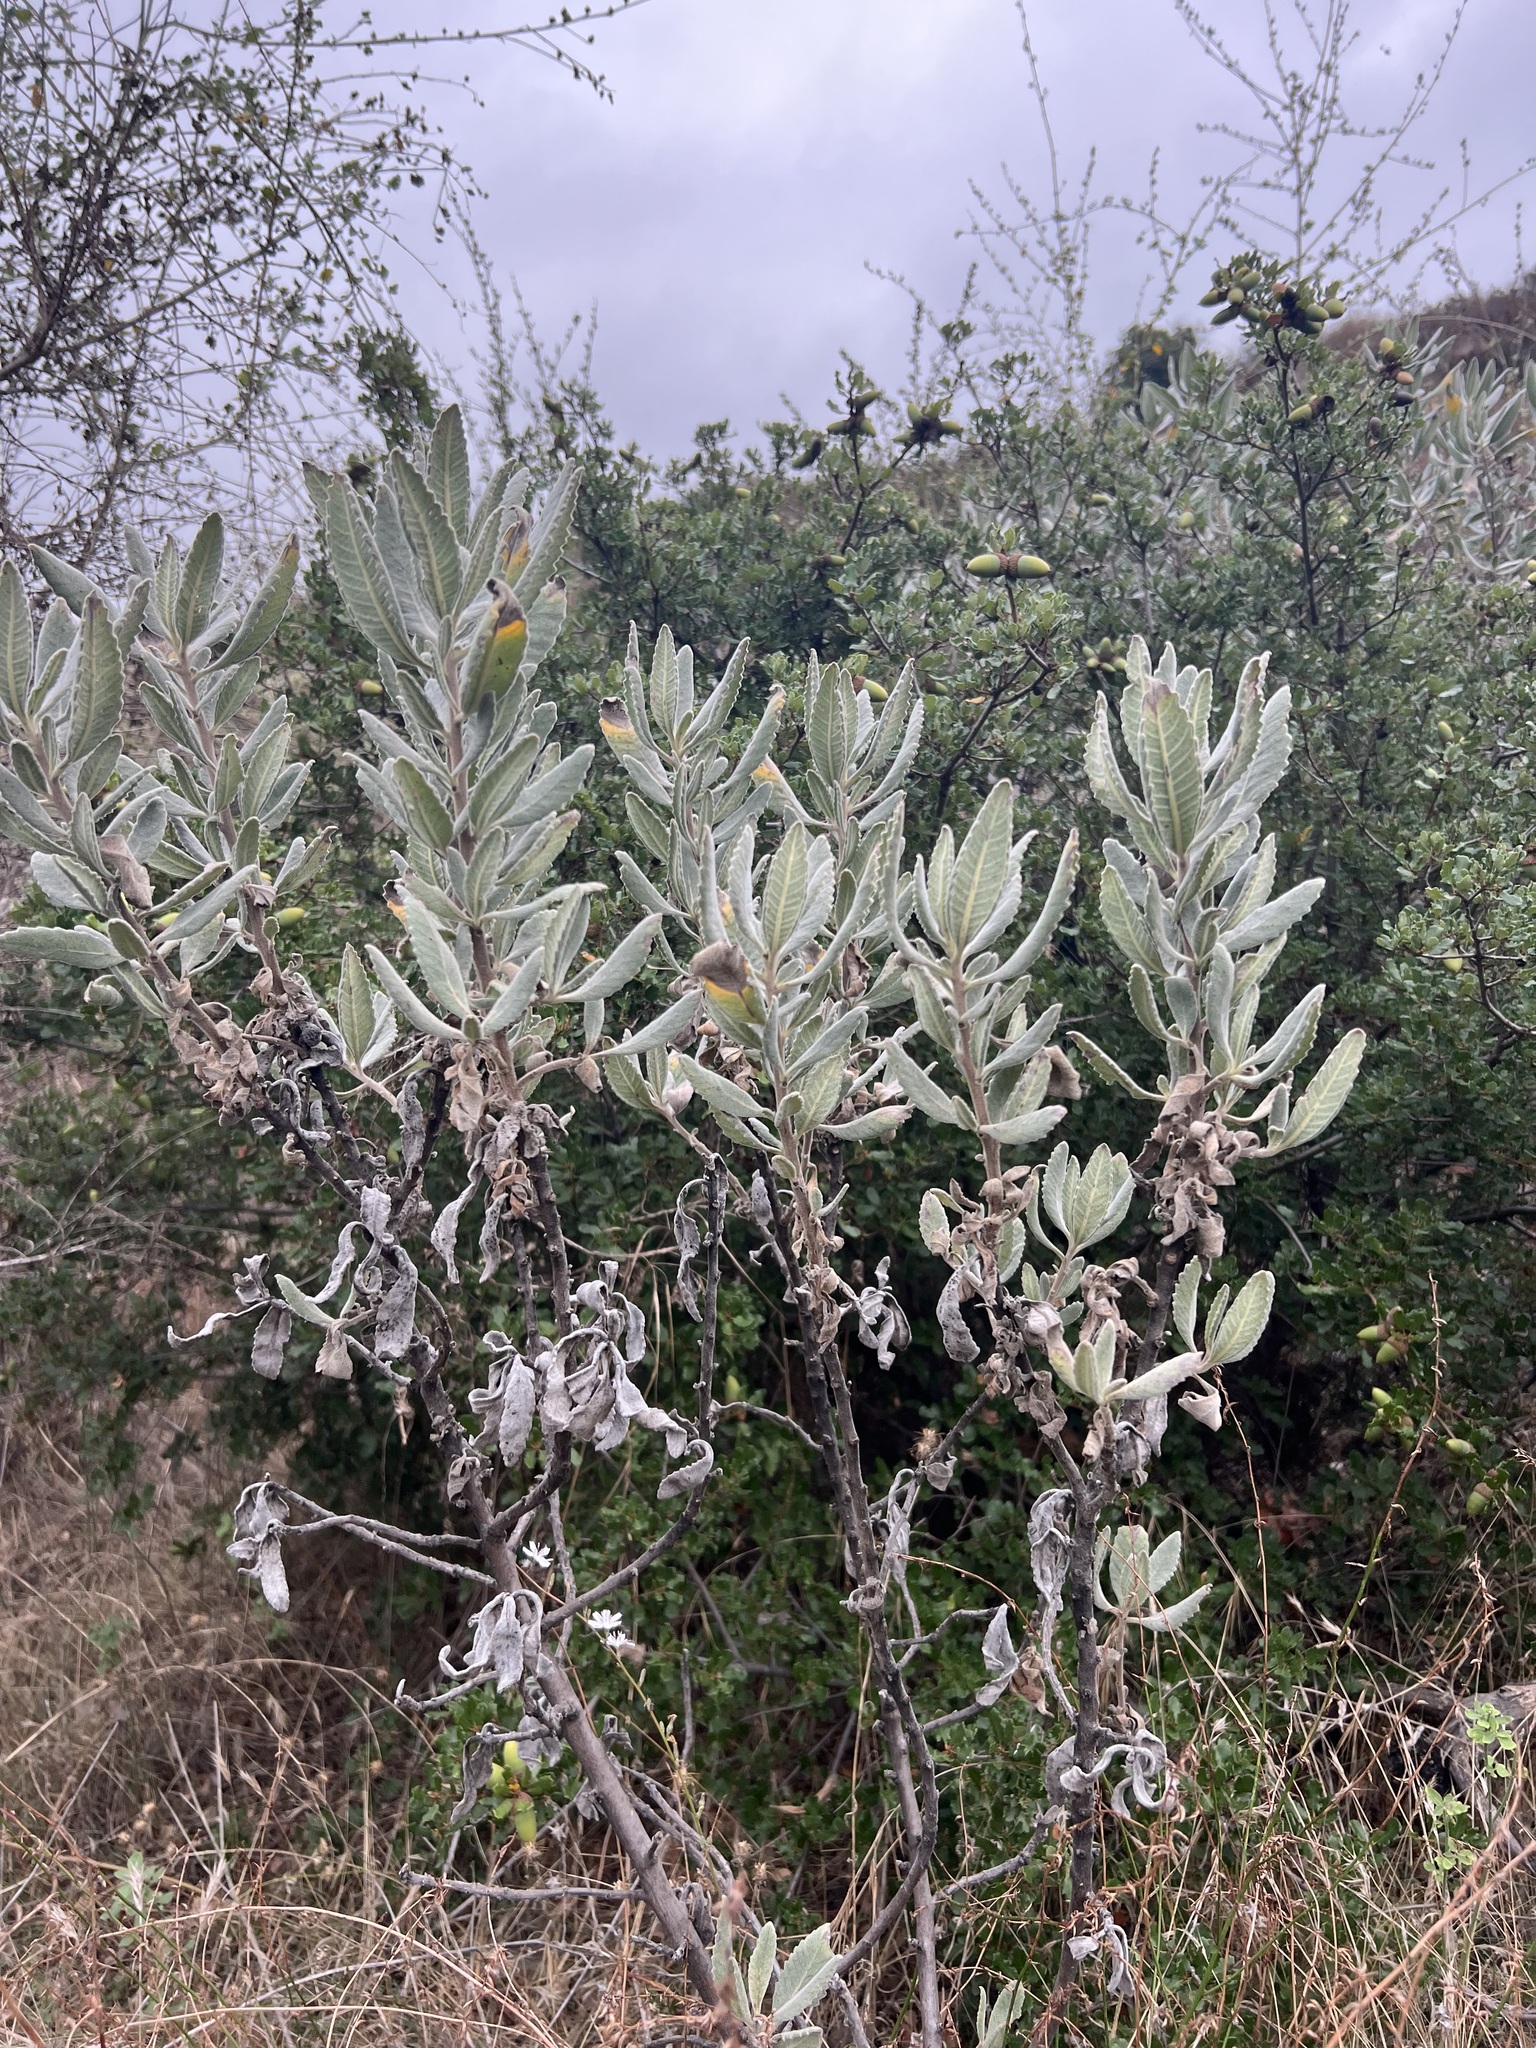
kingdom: Plantae
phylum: Tracheophyta
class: Magnoliopsida
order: Boraginales
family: Namaceae
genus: Eriodictyon
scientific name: Eriodictyon crassifolium
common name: Thick-leaf yerba-santa
